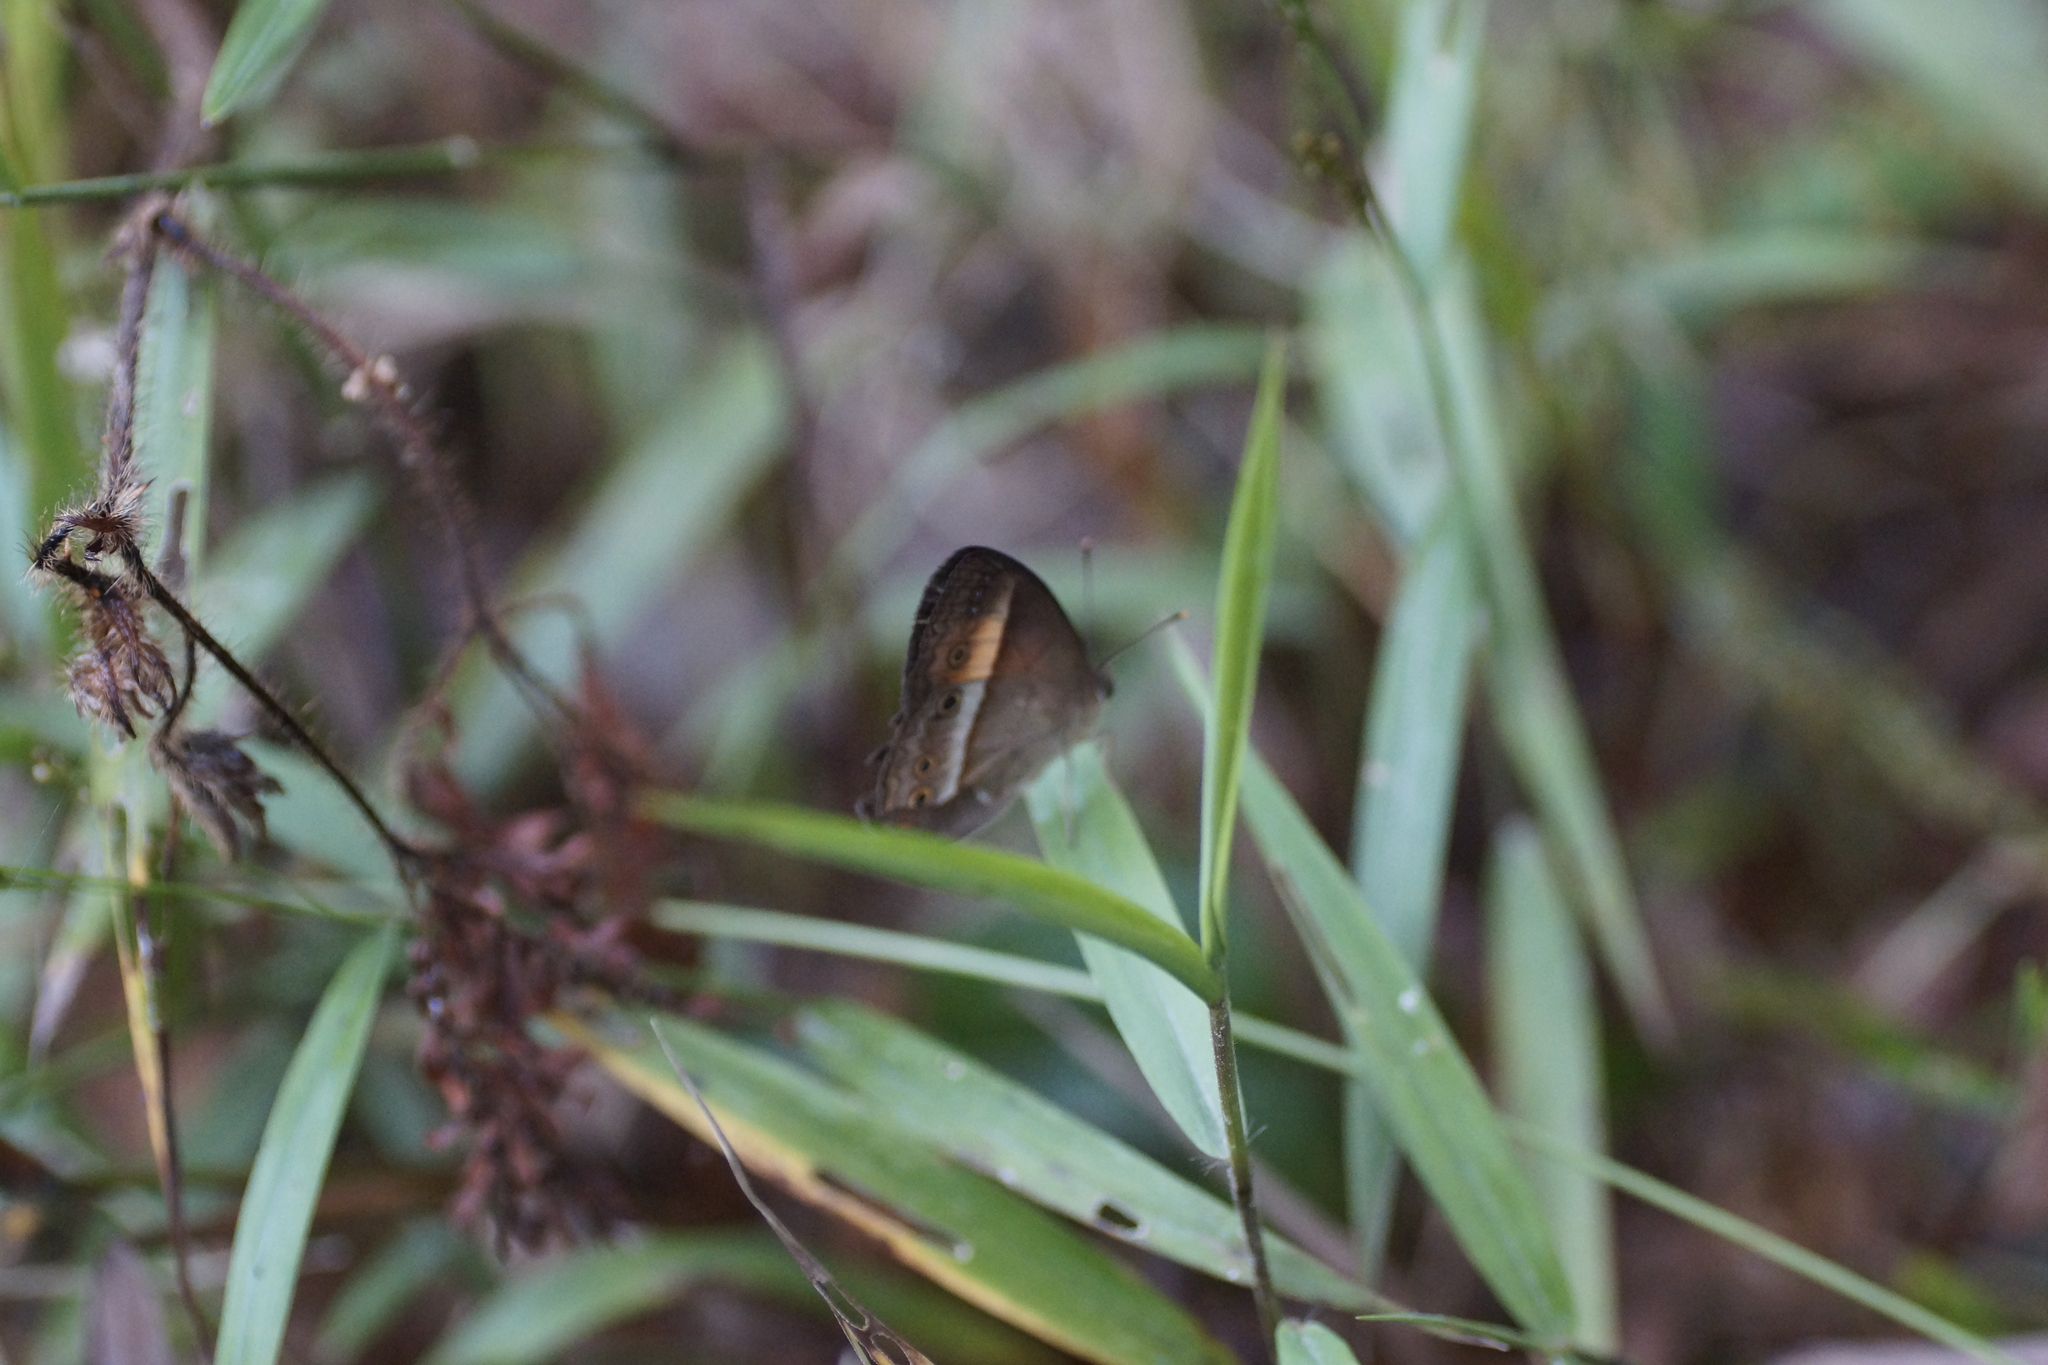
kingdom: Animalia
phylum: Arthropoda
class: Insecta
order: Lepidoptera
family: Nymphalidae
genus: Mycalesis
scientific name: Mycalesis terminus
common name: Orange bushbrown
